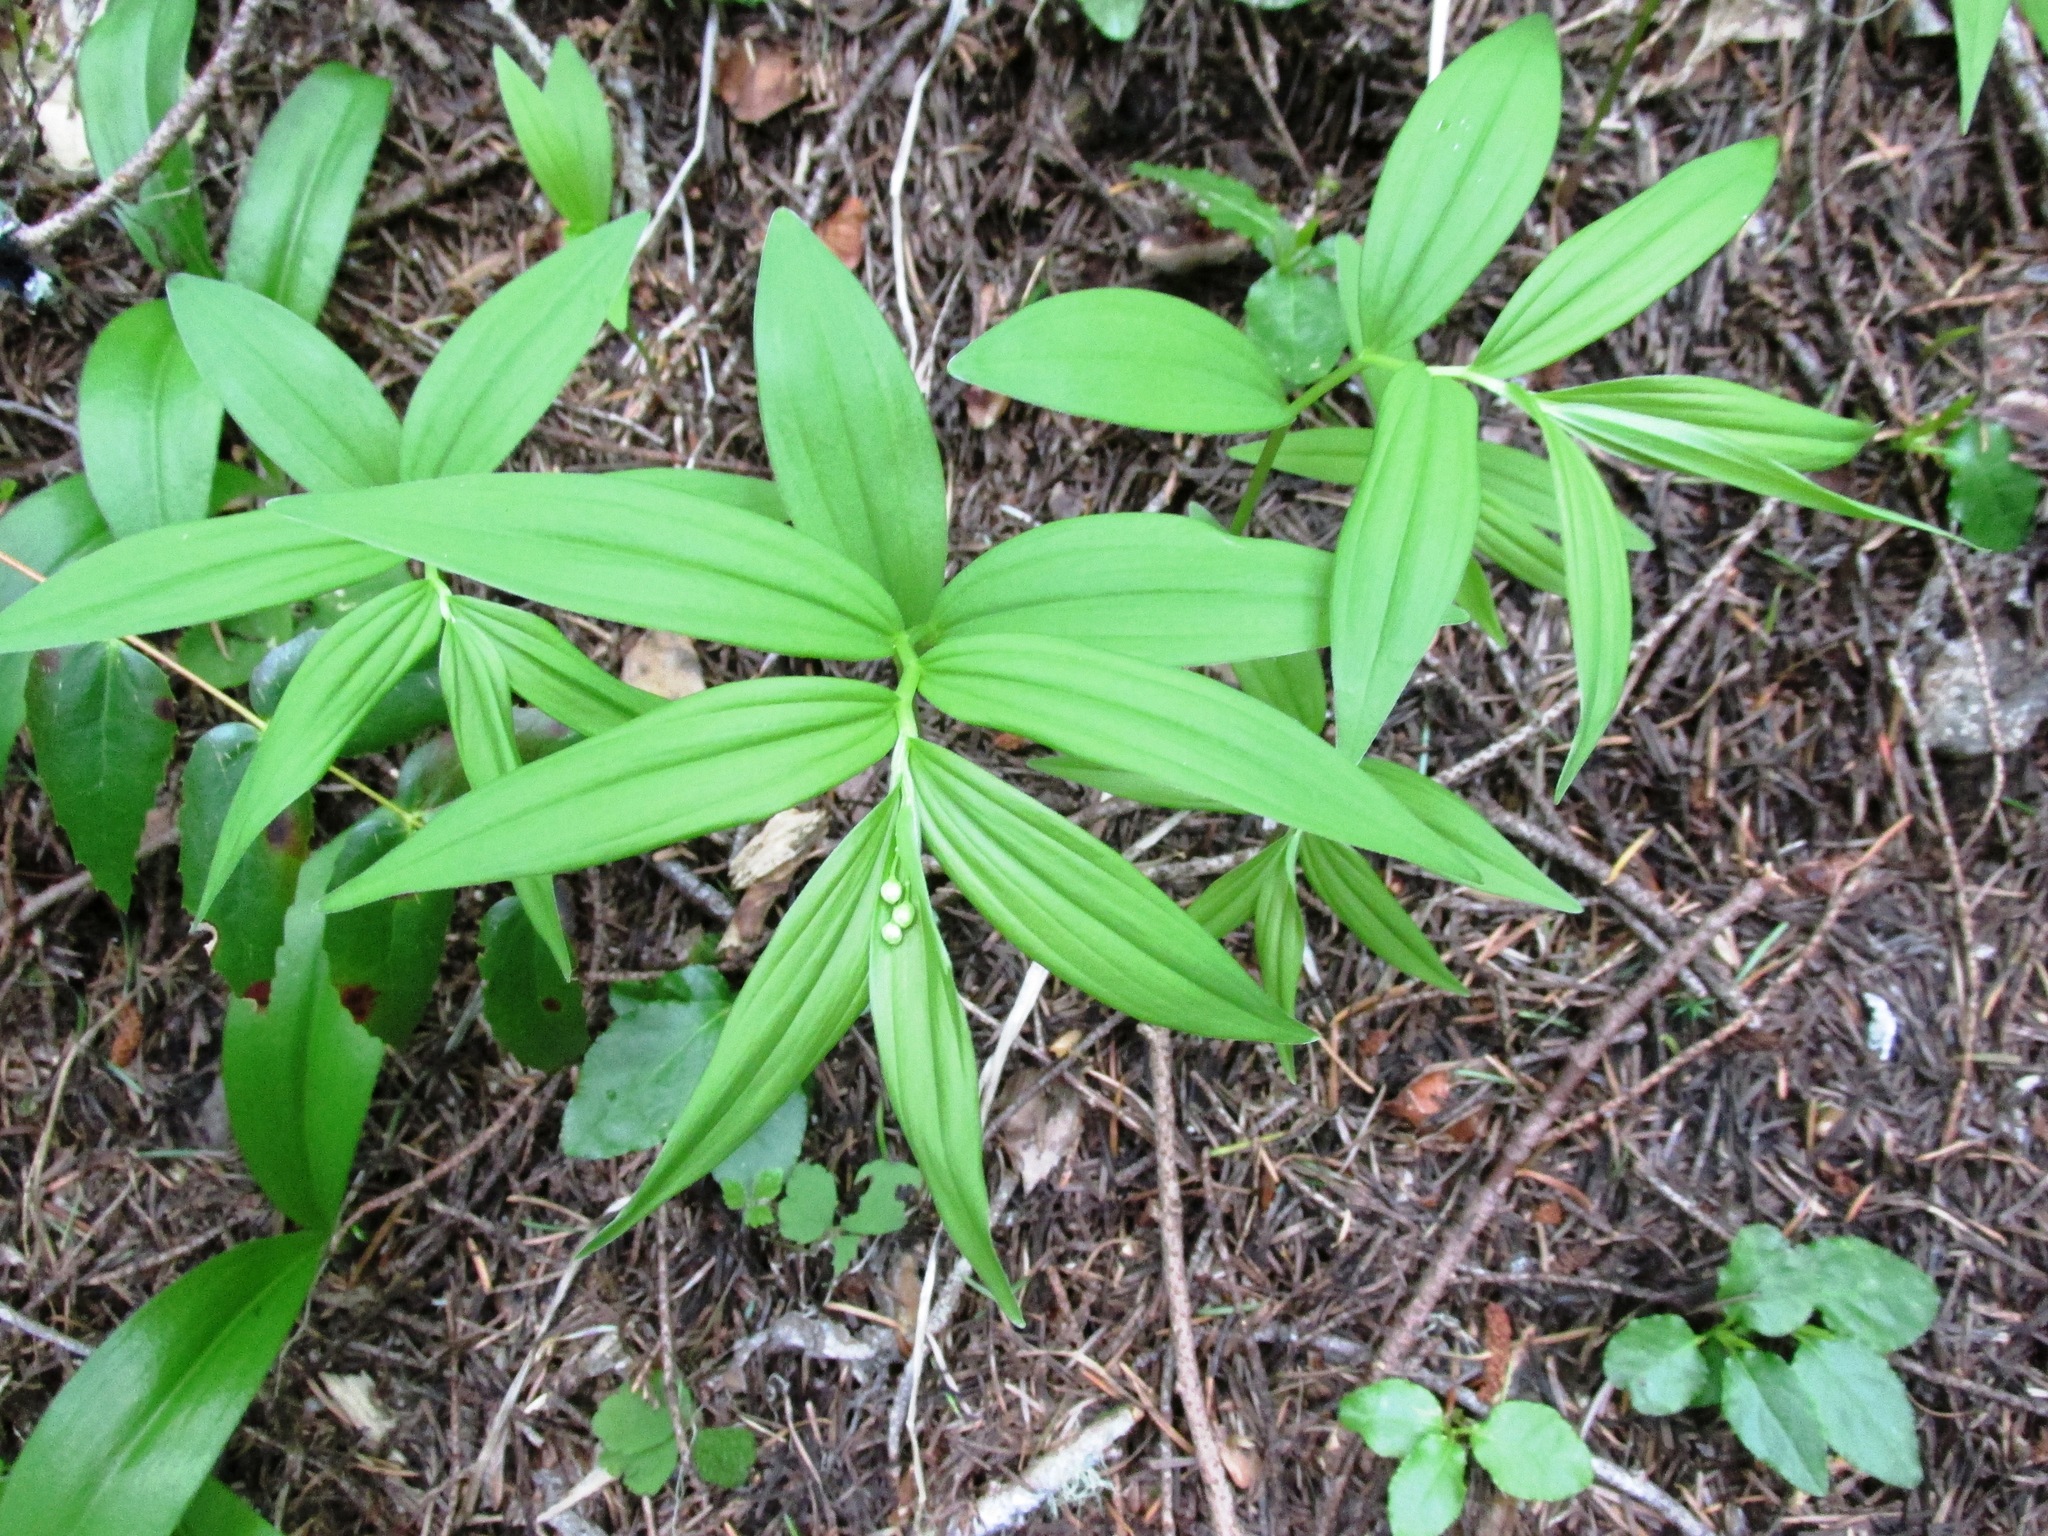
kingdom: Plantae
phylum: Tracheophyta
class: Liliopsida
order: Asparagales
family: Asparagaceae
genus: Maianthemum
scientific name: Maianthemum stellatum
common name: Little false solomon's seal
